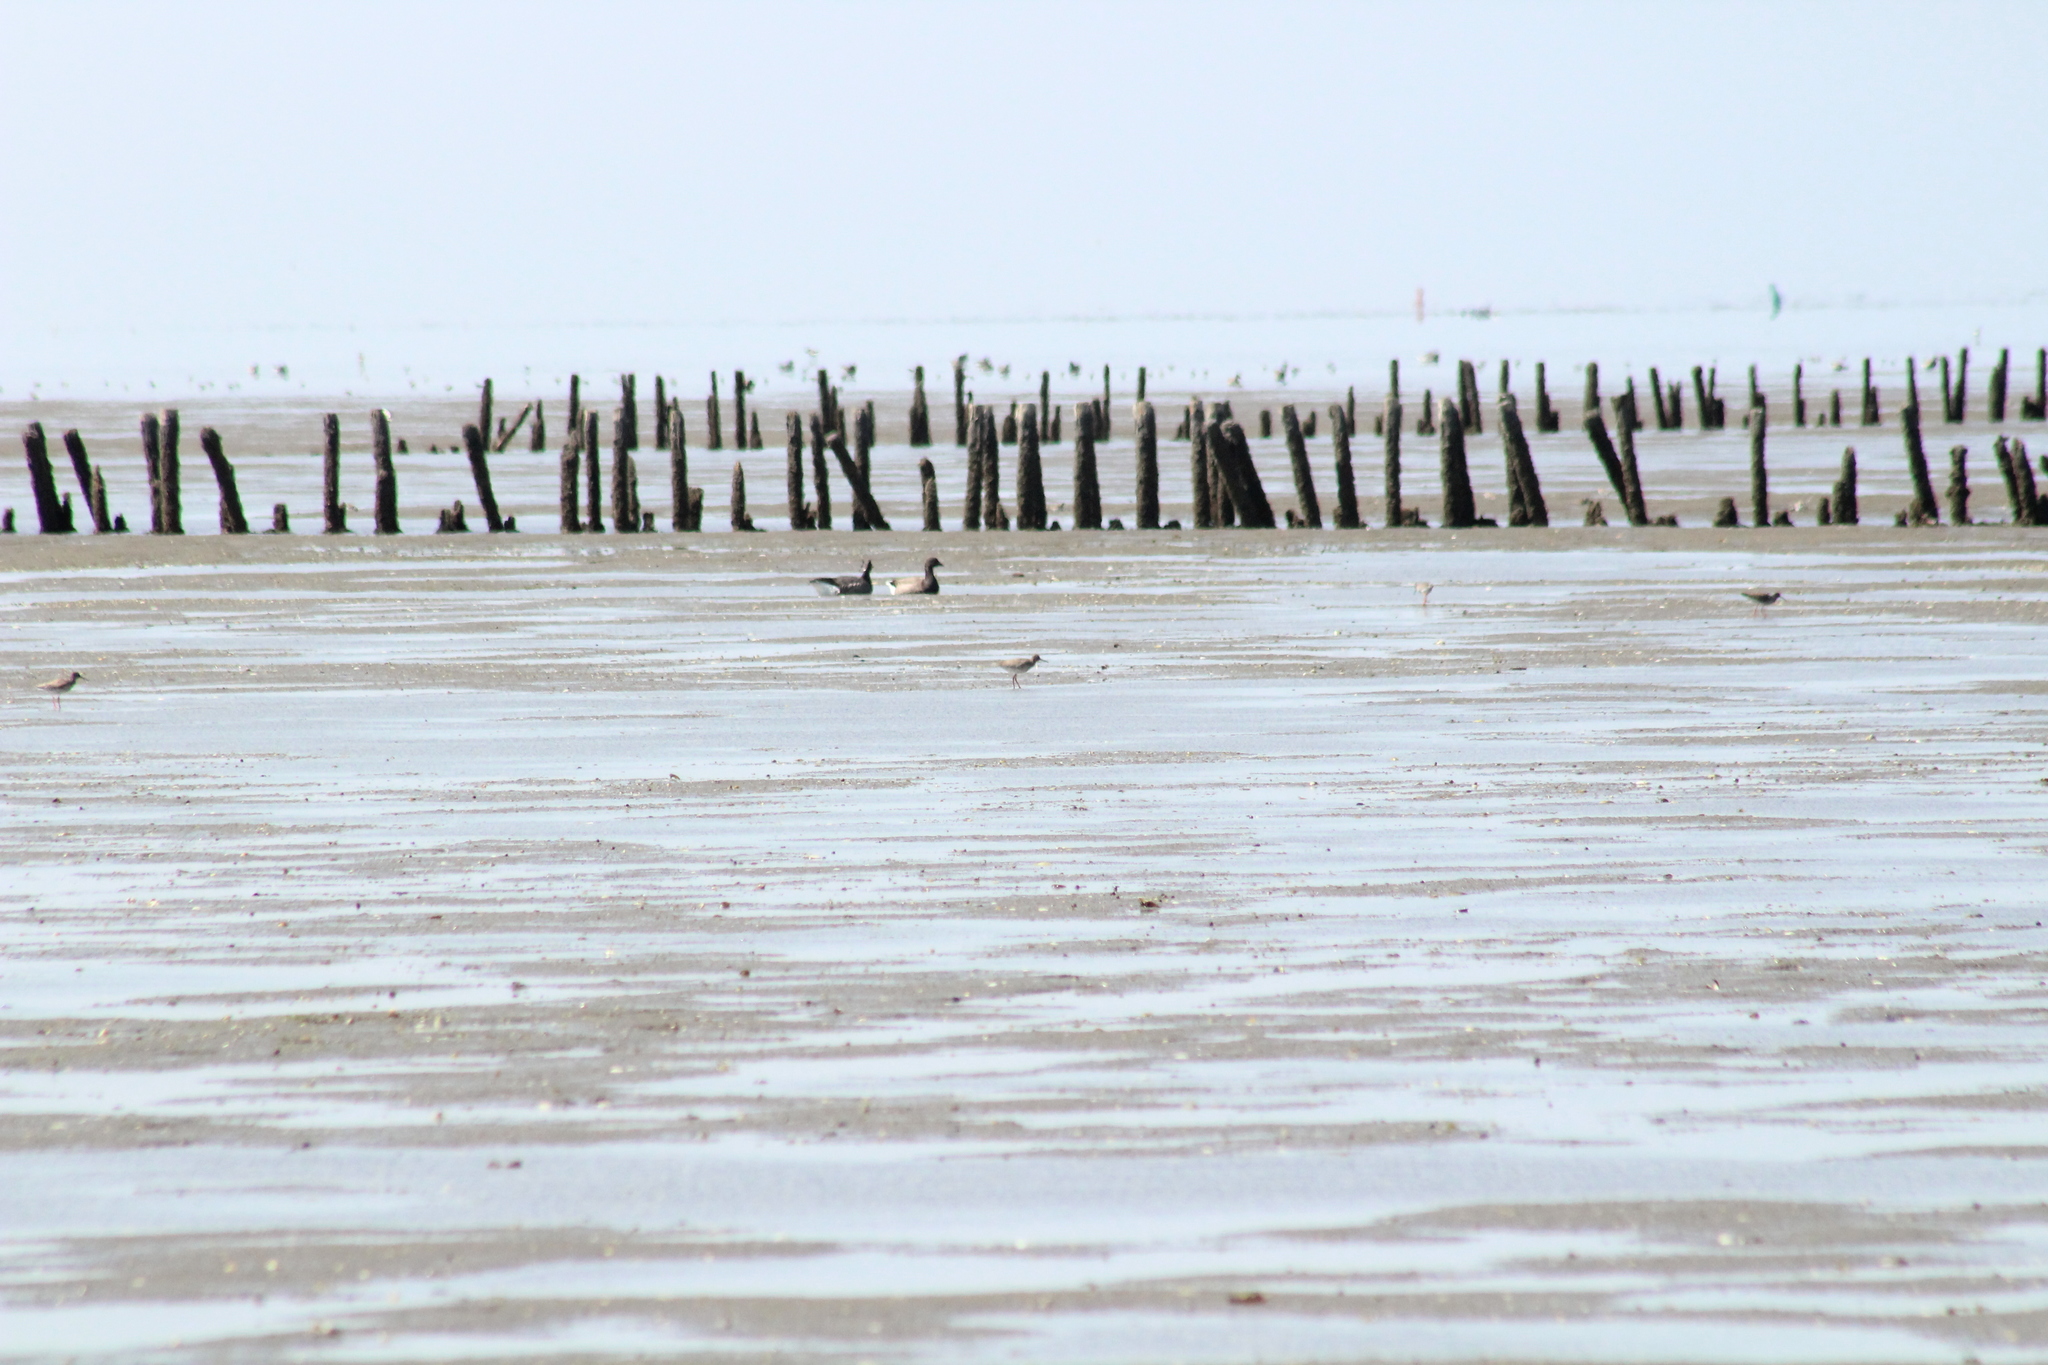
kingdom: Animalia
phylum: Chordata
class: Aves
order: Charadriiformes
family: Scolopacidae
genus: Tringa
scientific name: Tringa totanus
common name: Common redshank
